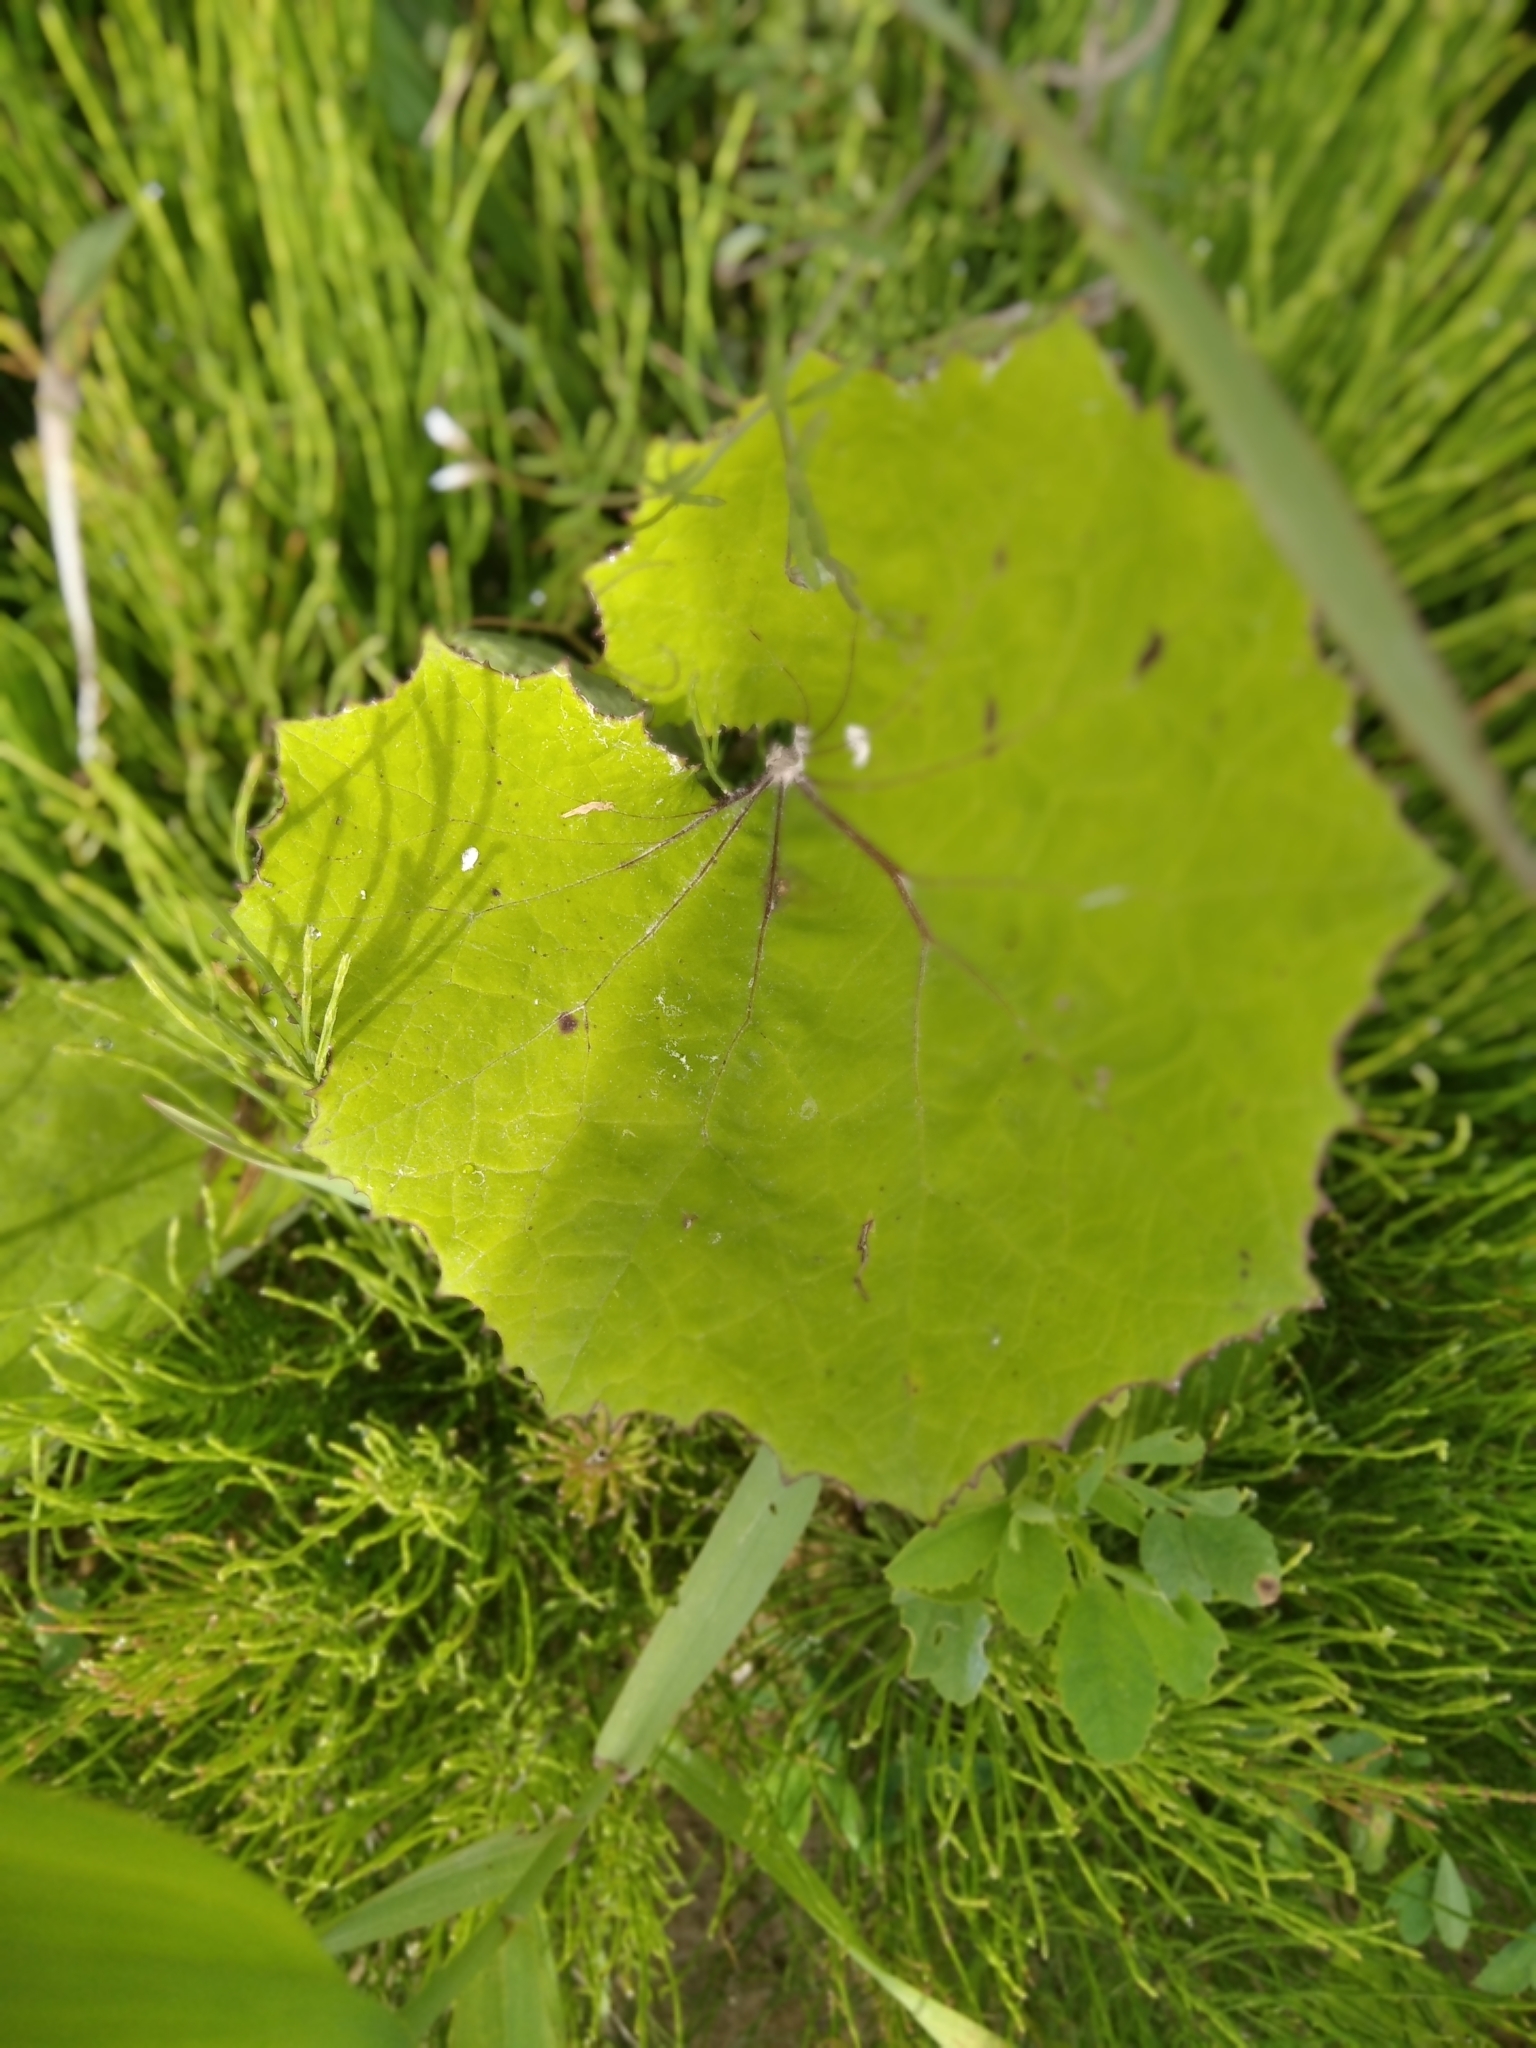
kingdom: Plantae
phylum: Tracheophyta
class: Magnoliopsida
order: Asterales
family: Asteraceae
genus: Tussilago
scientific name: Tussilago farfara
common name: Coltsfoot
